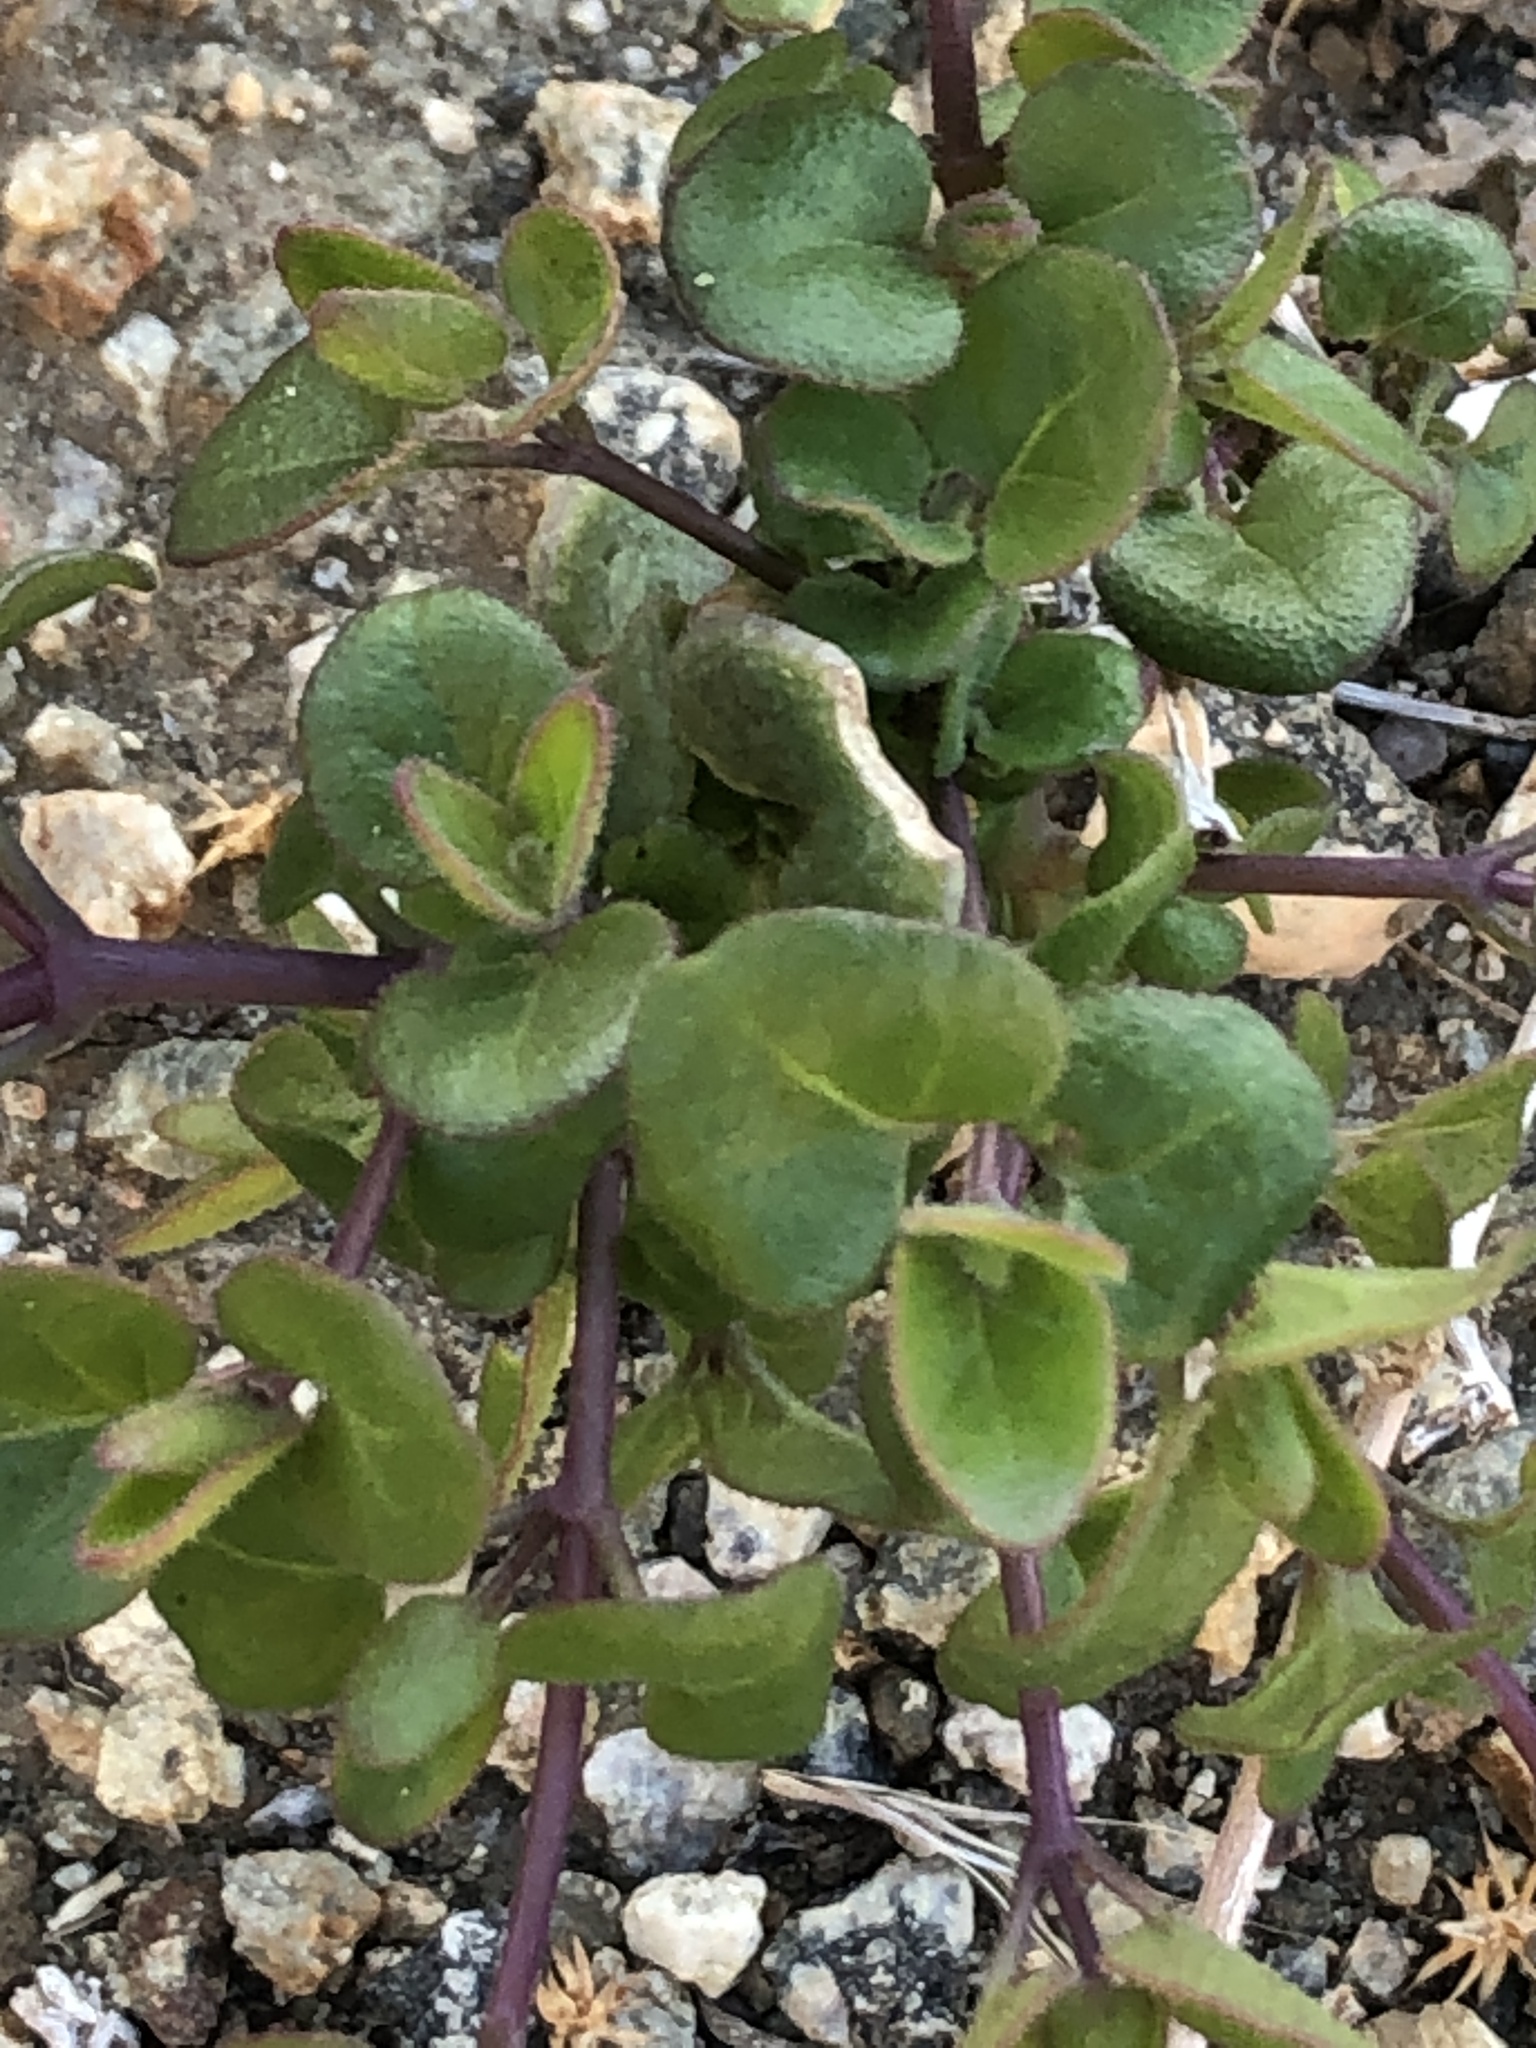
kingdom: Plantae
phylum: Tracheophyta
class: Magnoliopsida
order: Caryophyllales
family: Nyctaginaceae
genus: Mirabilis
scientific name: Mirabilis laevis
